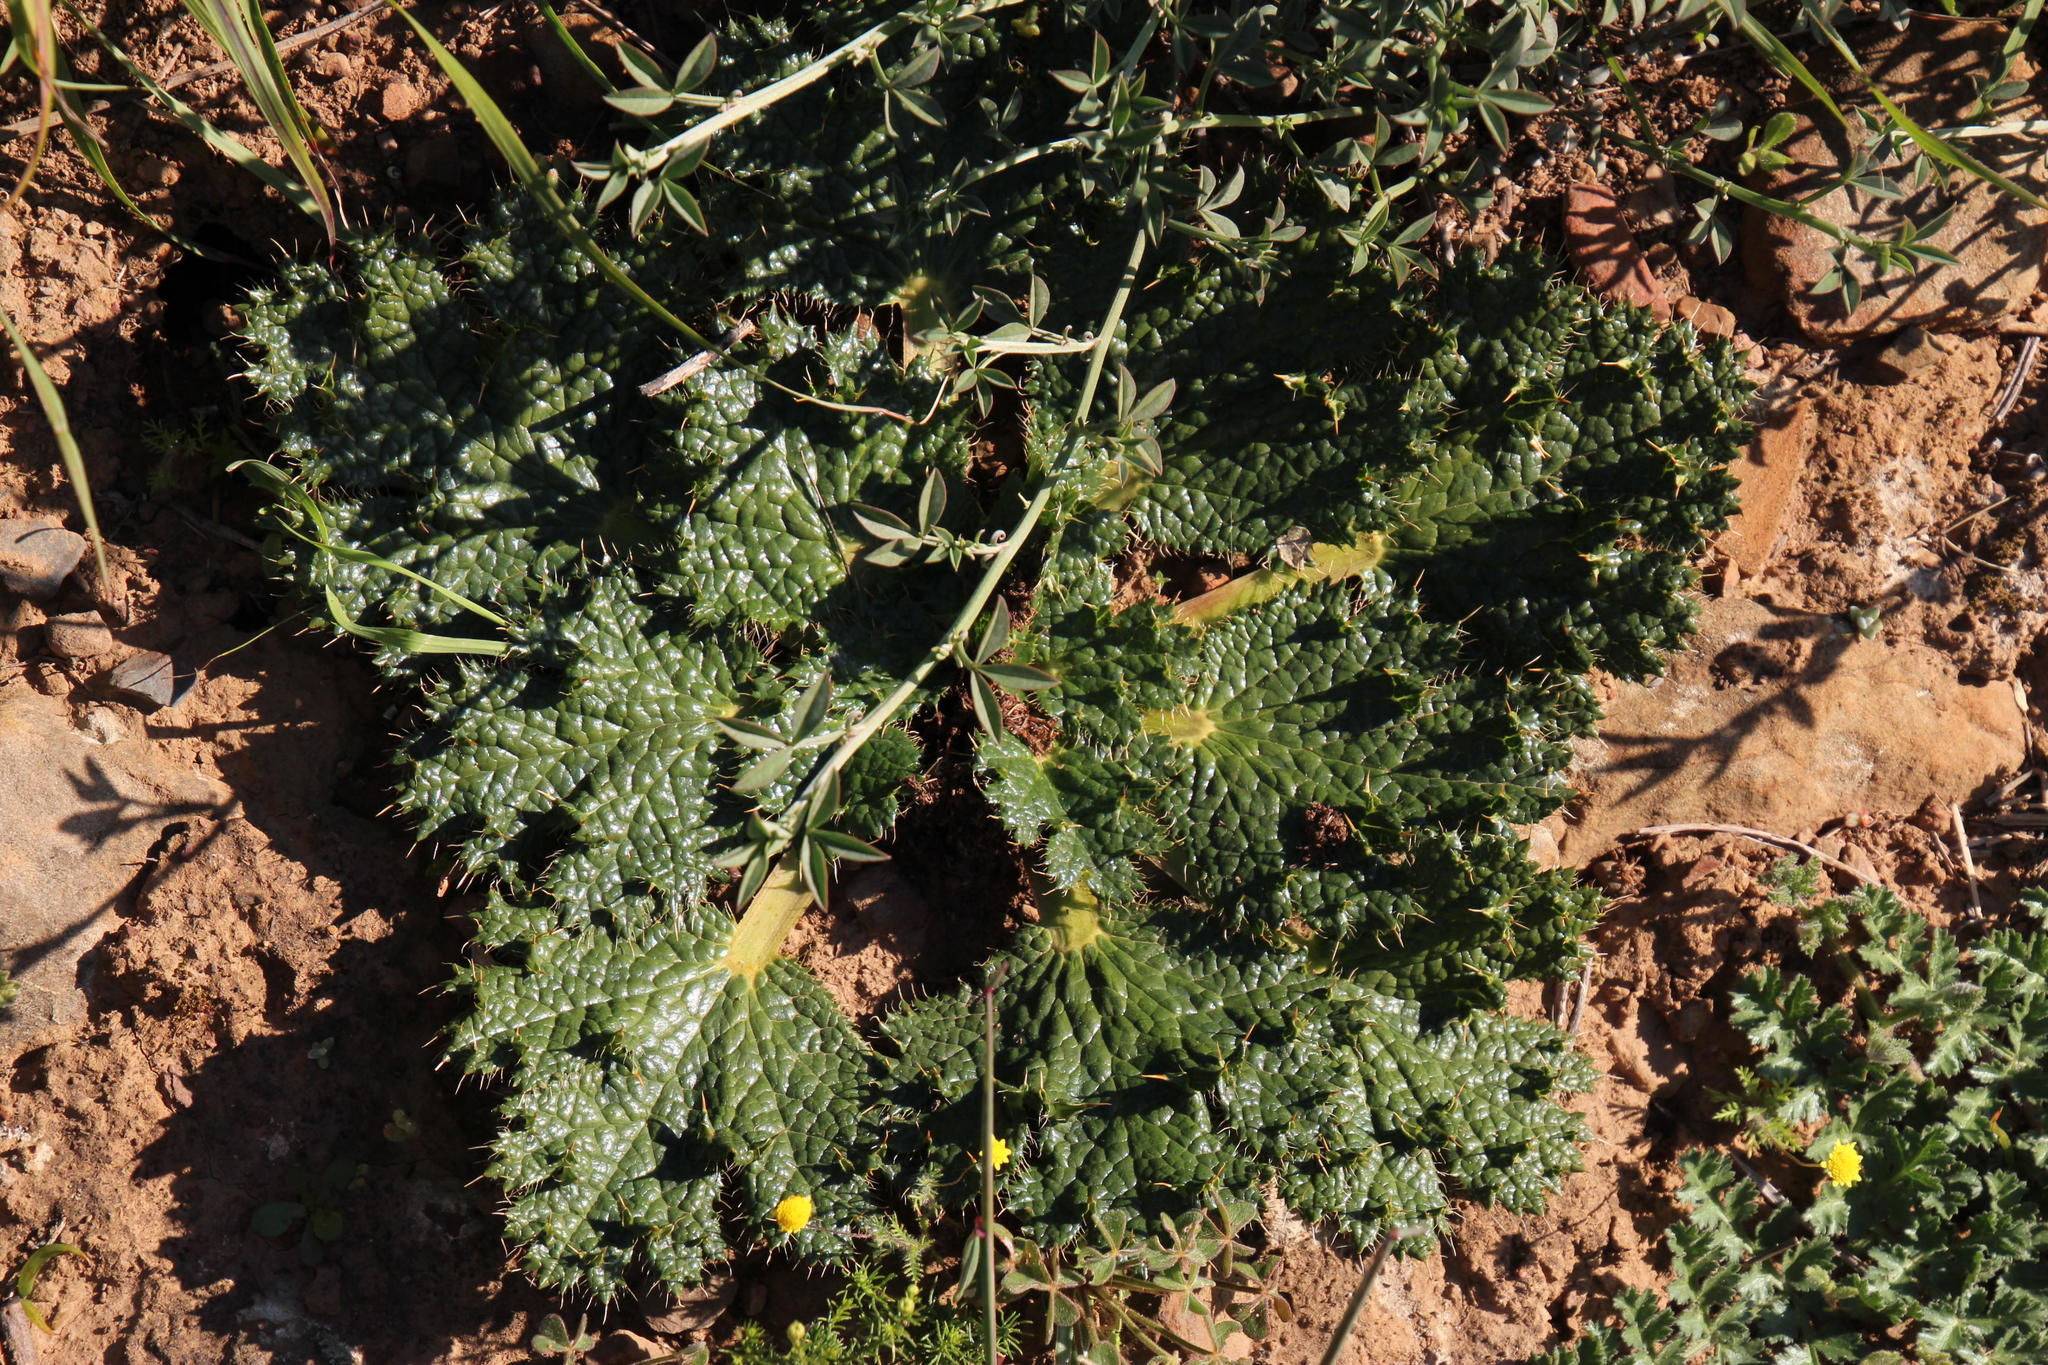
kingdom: Plantae
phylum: Tracheophyta
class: Magnoliopsida
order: Apiales
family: Apiaceae
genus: Arctopus
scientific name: Arctopus echinatus
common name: Platdoring
